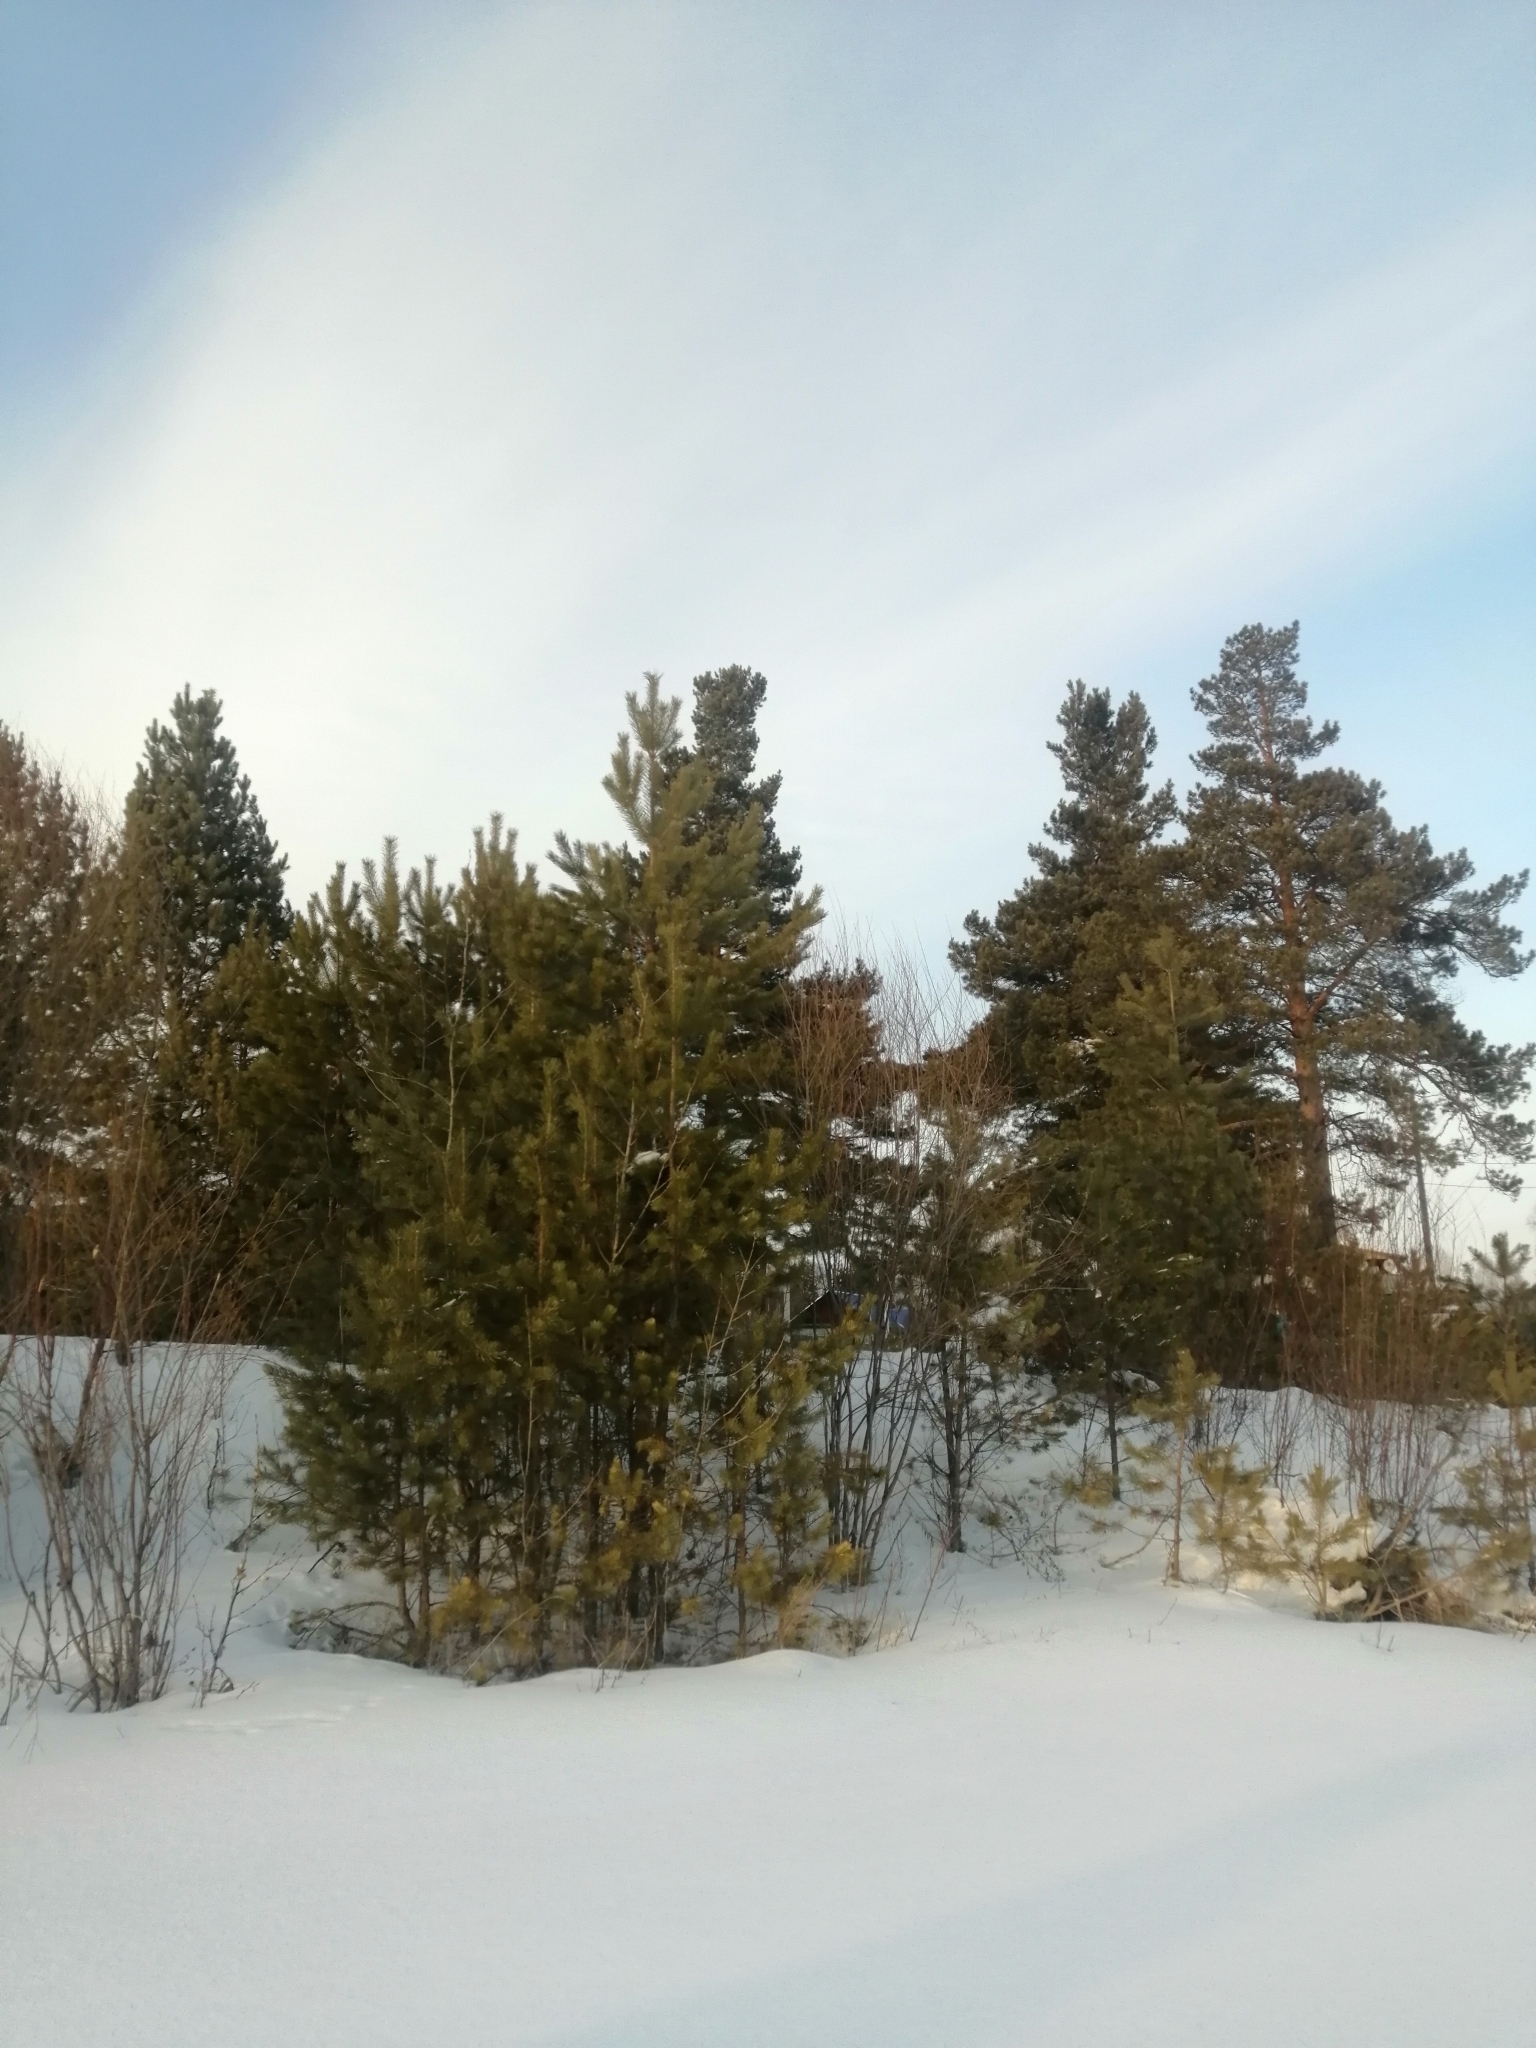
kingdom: Plantae
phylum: Tracheophyta
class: Pinopsida
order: Pinales
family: Pinaceae
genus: Pinus
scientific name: Pinus sylvestris
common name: Scots pine
